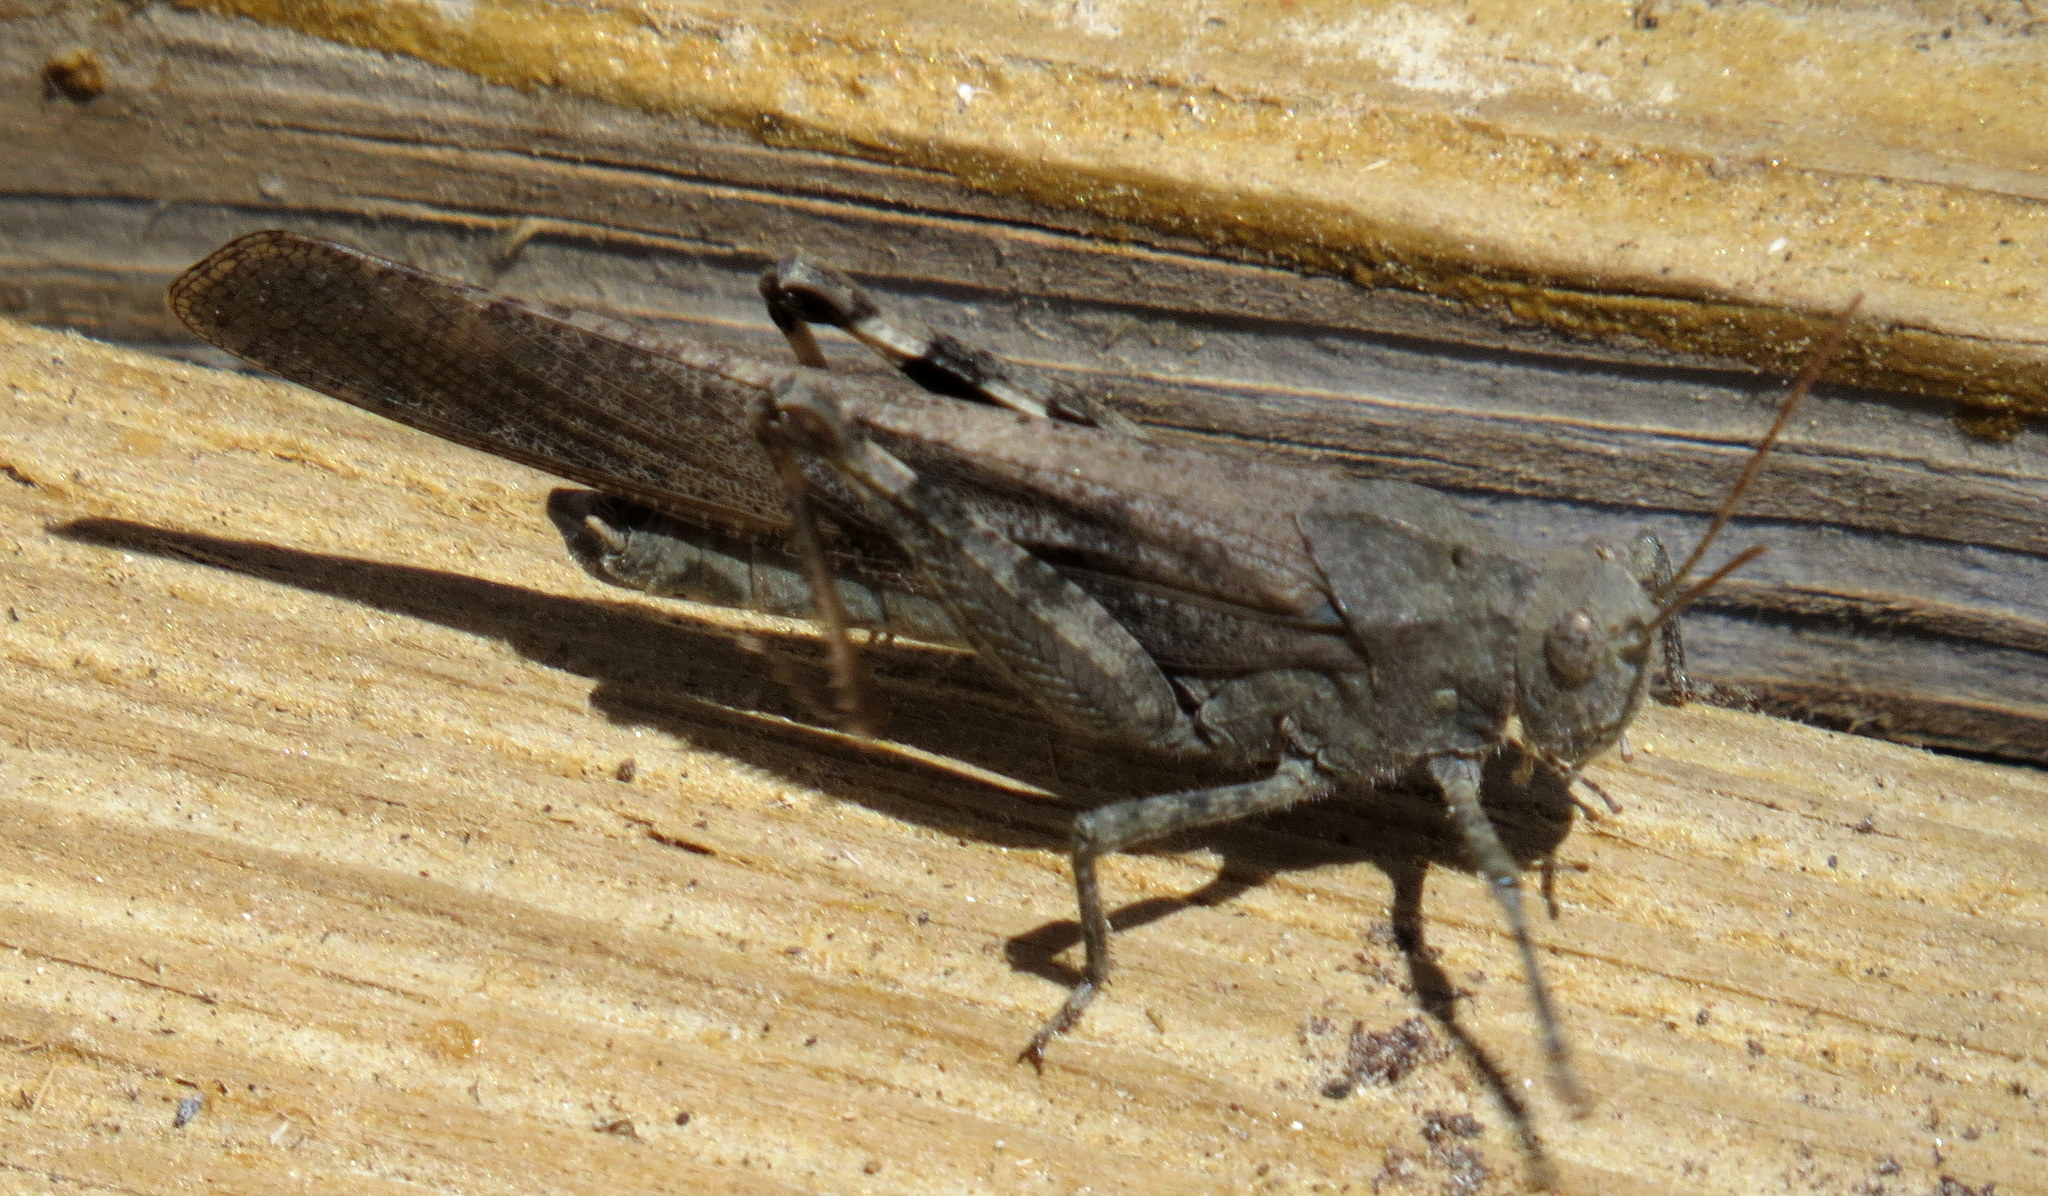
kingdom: Animalia
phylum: Arthropoda
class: Insecta
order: Orthoptera
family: Acrididae
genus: Dissosteira
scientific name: Dissosteira carolina
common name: Carolina grasshopper
